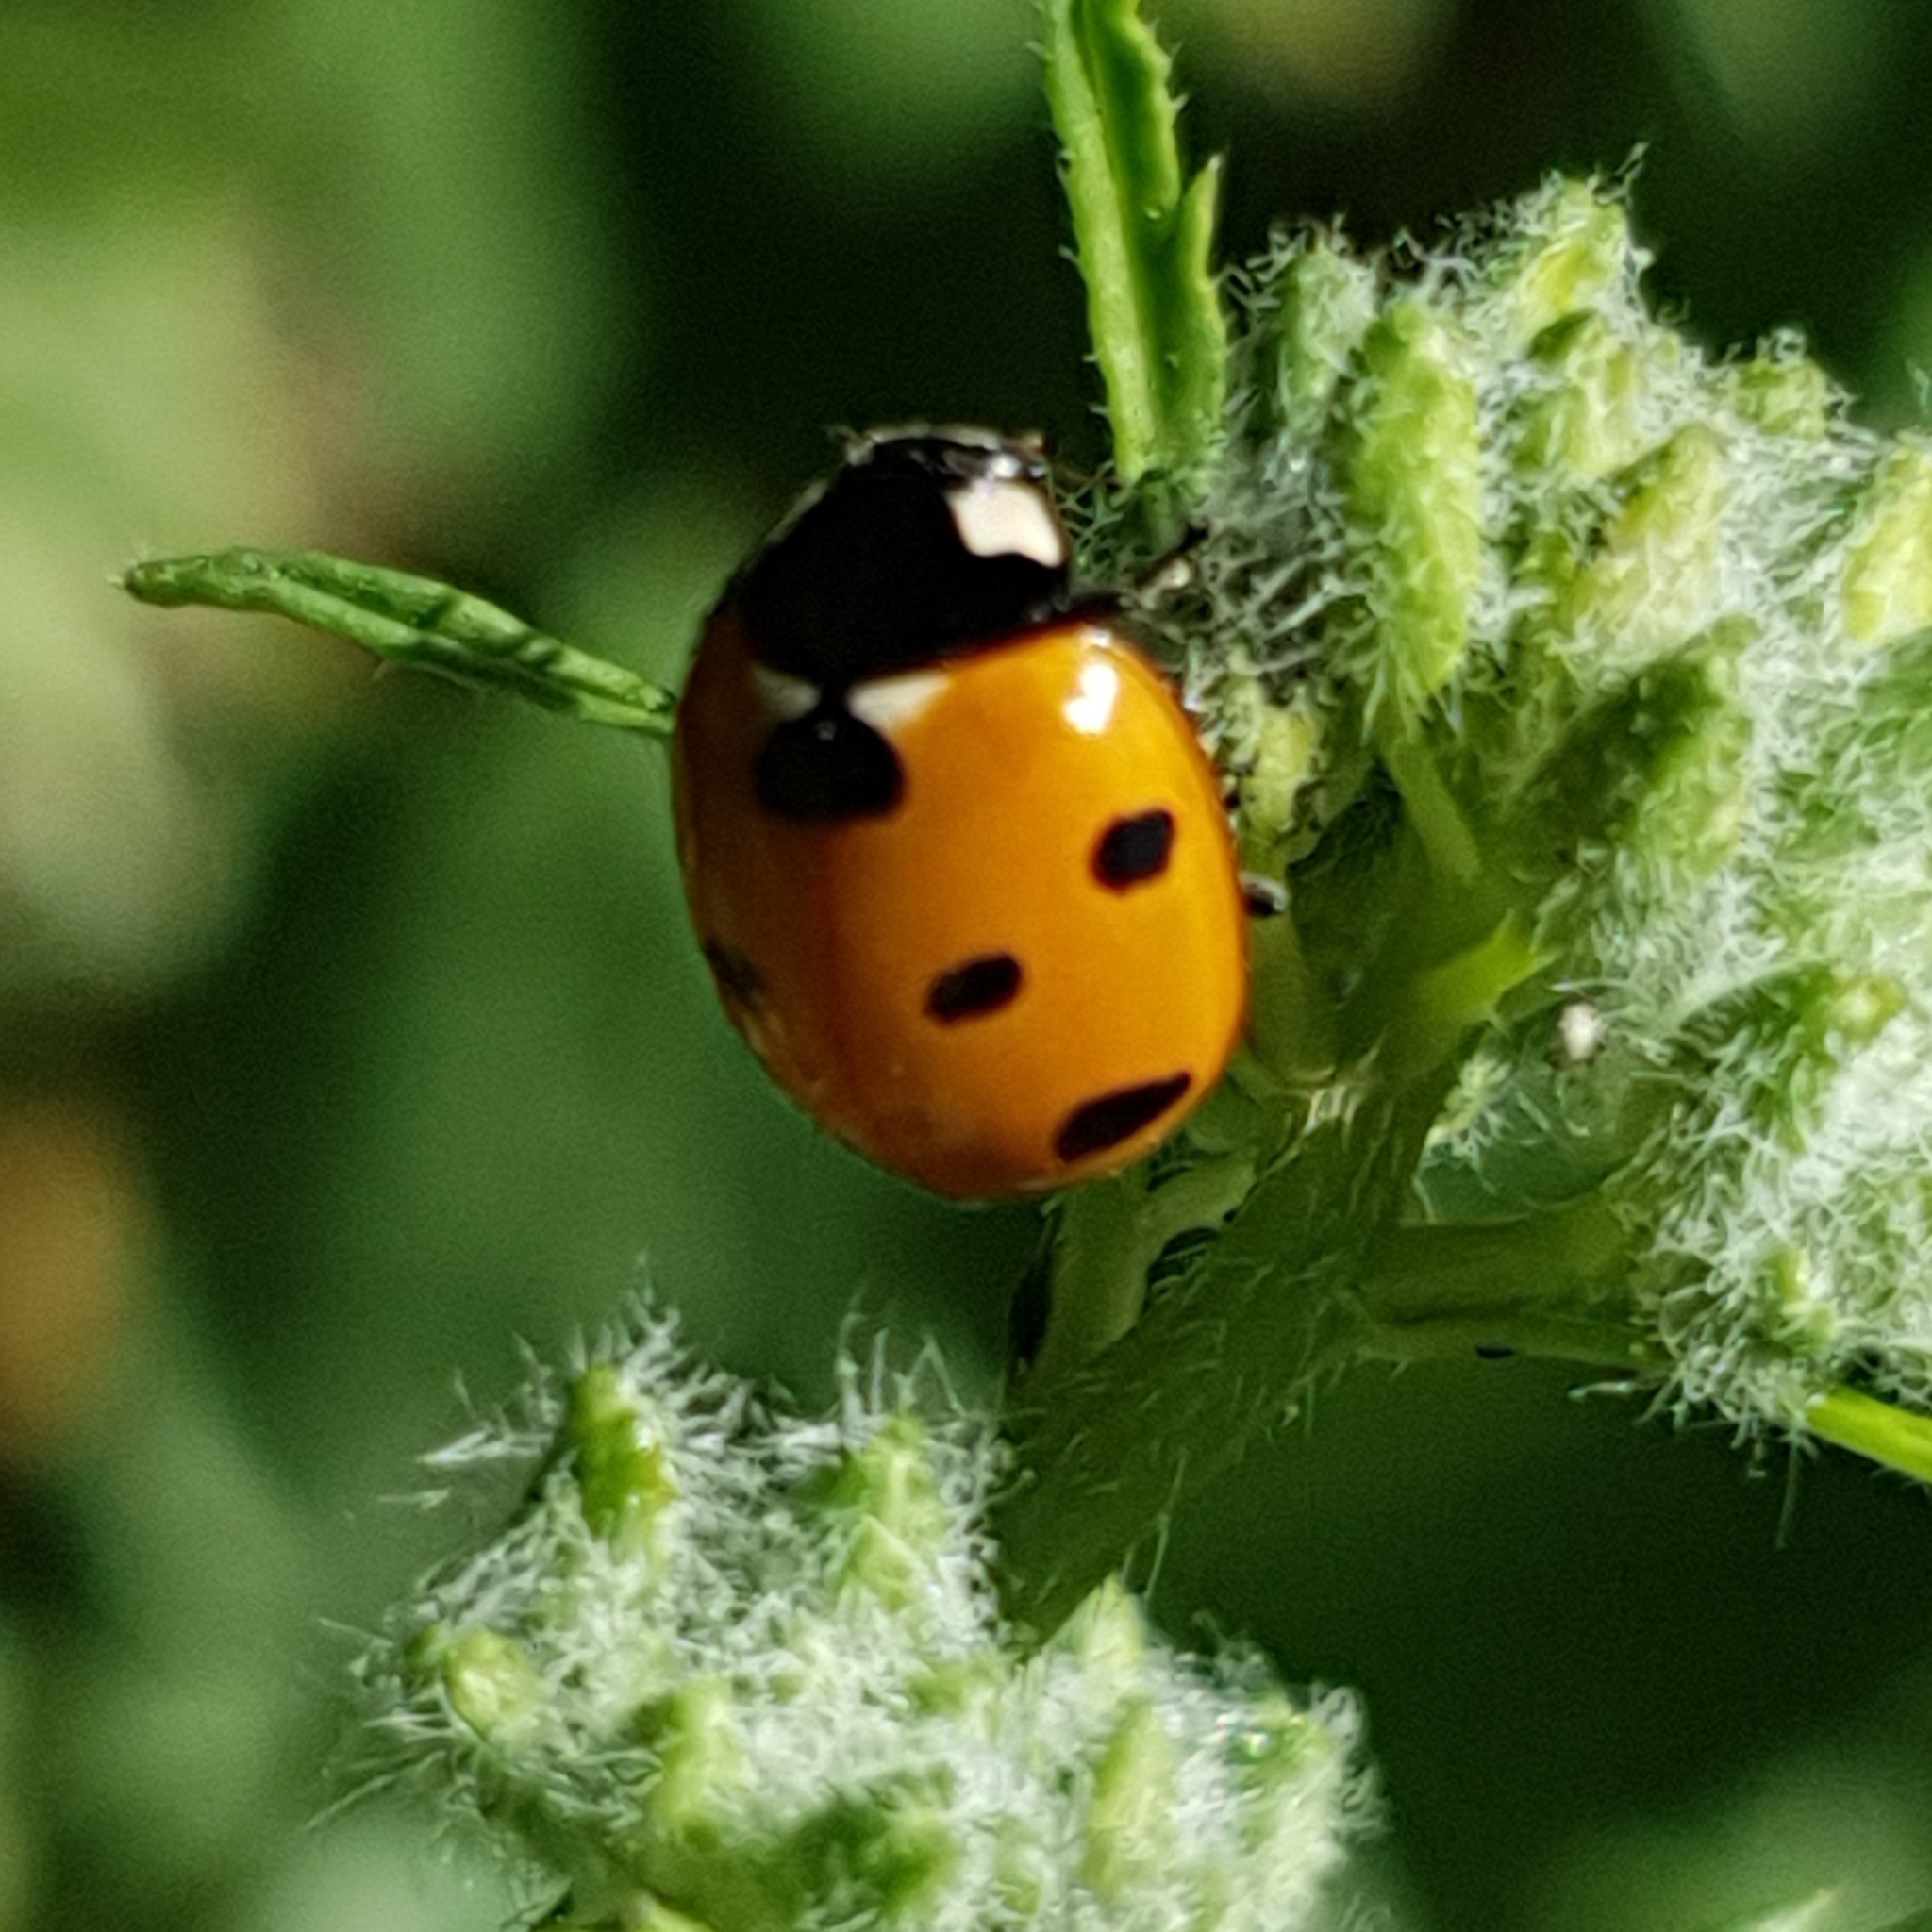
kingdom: Animalia
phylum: Arthropoda
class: Insecta
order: Coleoptera
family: Coccinellidae
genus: Coccinella
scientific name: Coccinella algerica
